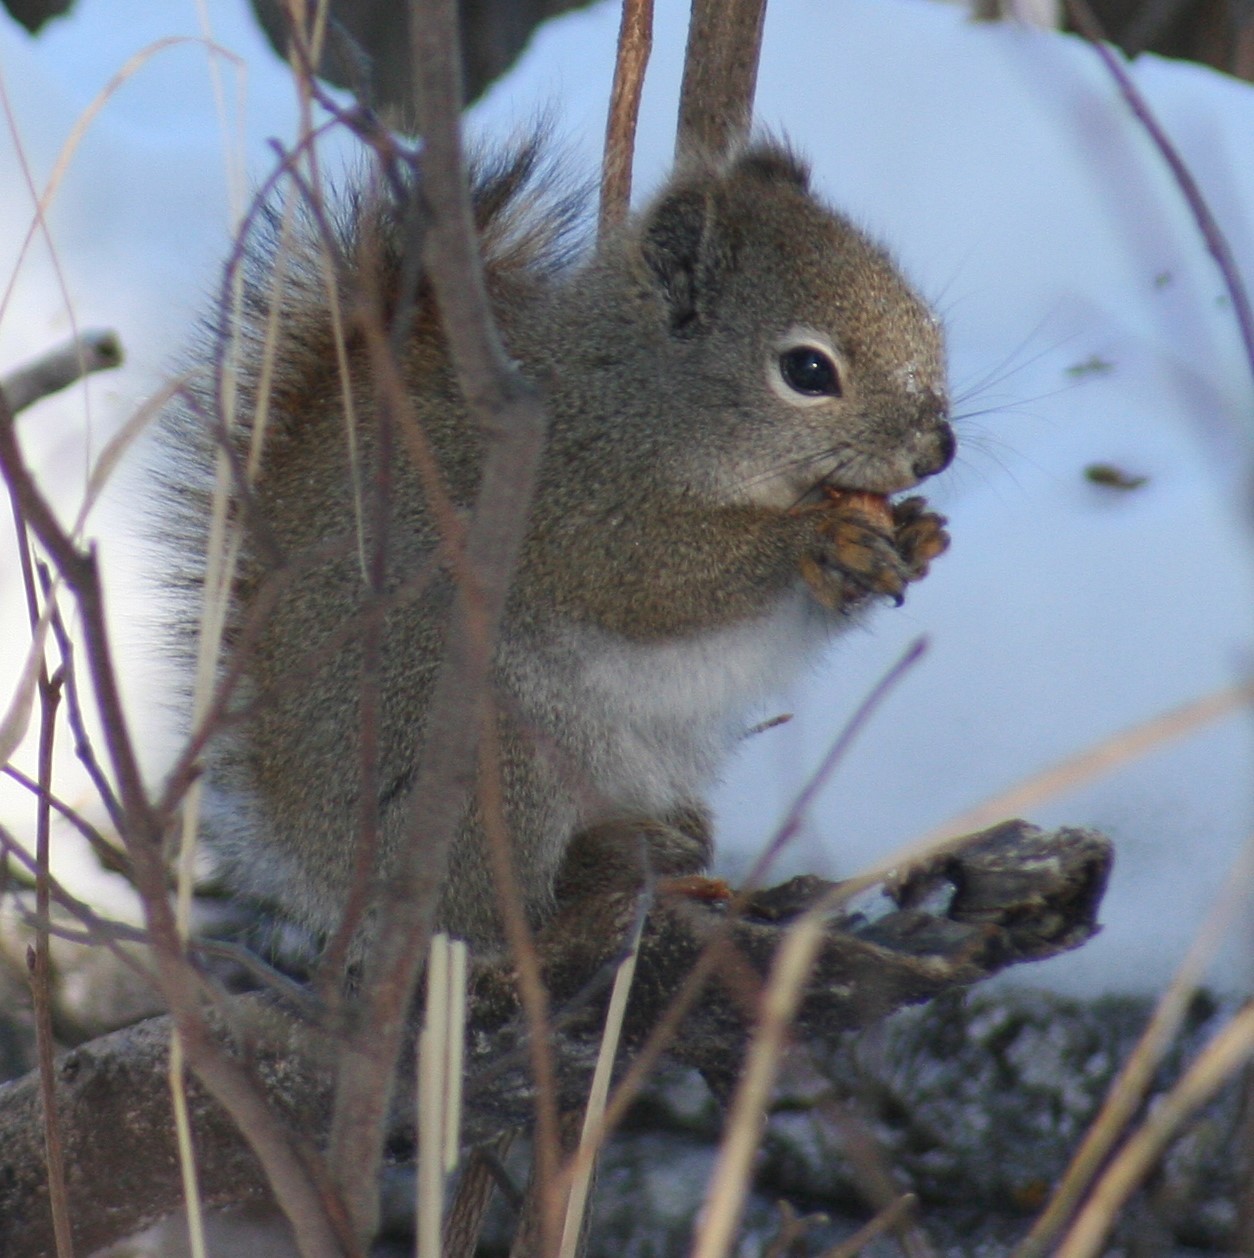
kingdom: Animalia
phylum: Chordata
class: Mammalia
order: Rodentia
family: Sciuridae
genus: Tamiasciurus
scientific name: Tamiasciurus hudsonicus
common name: Red squirrel
